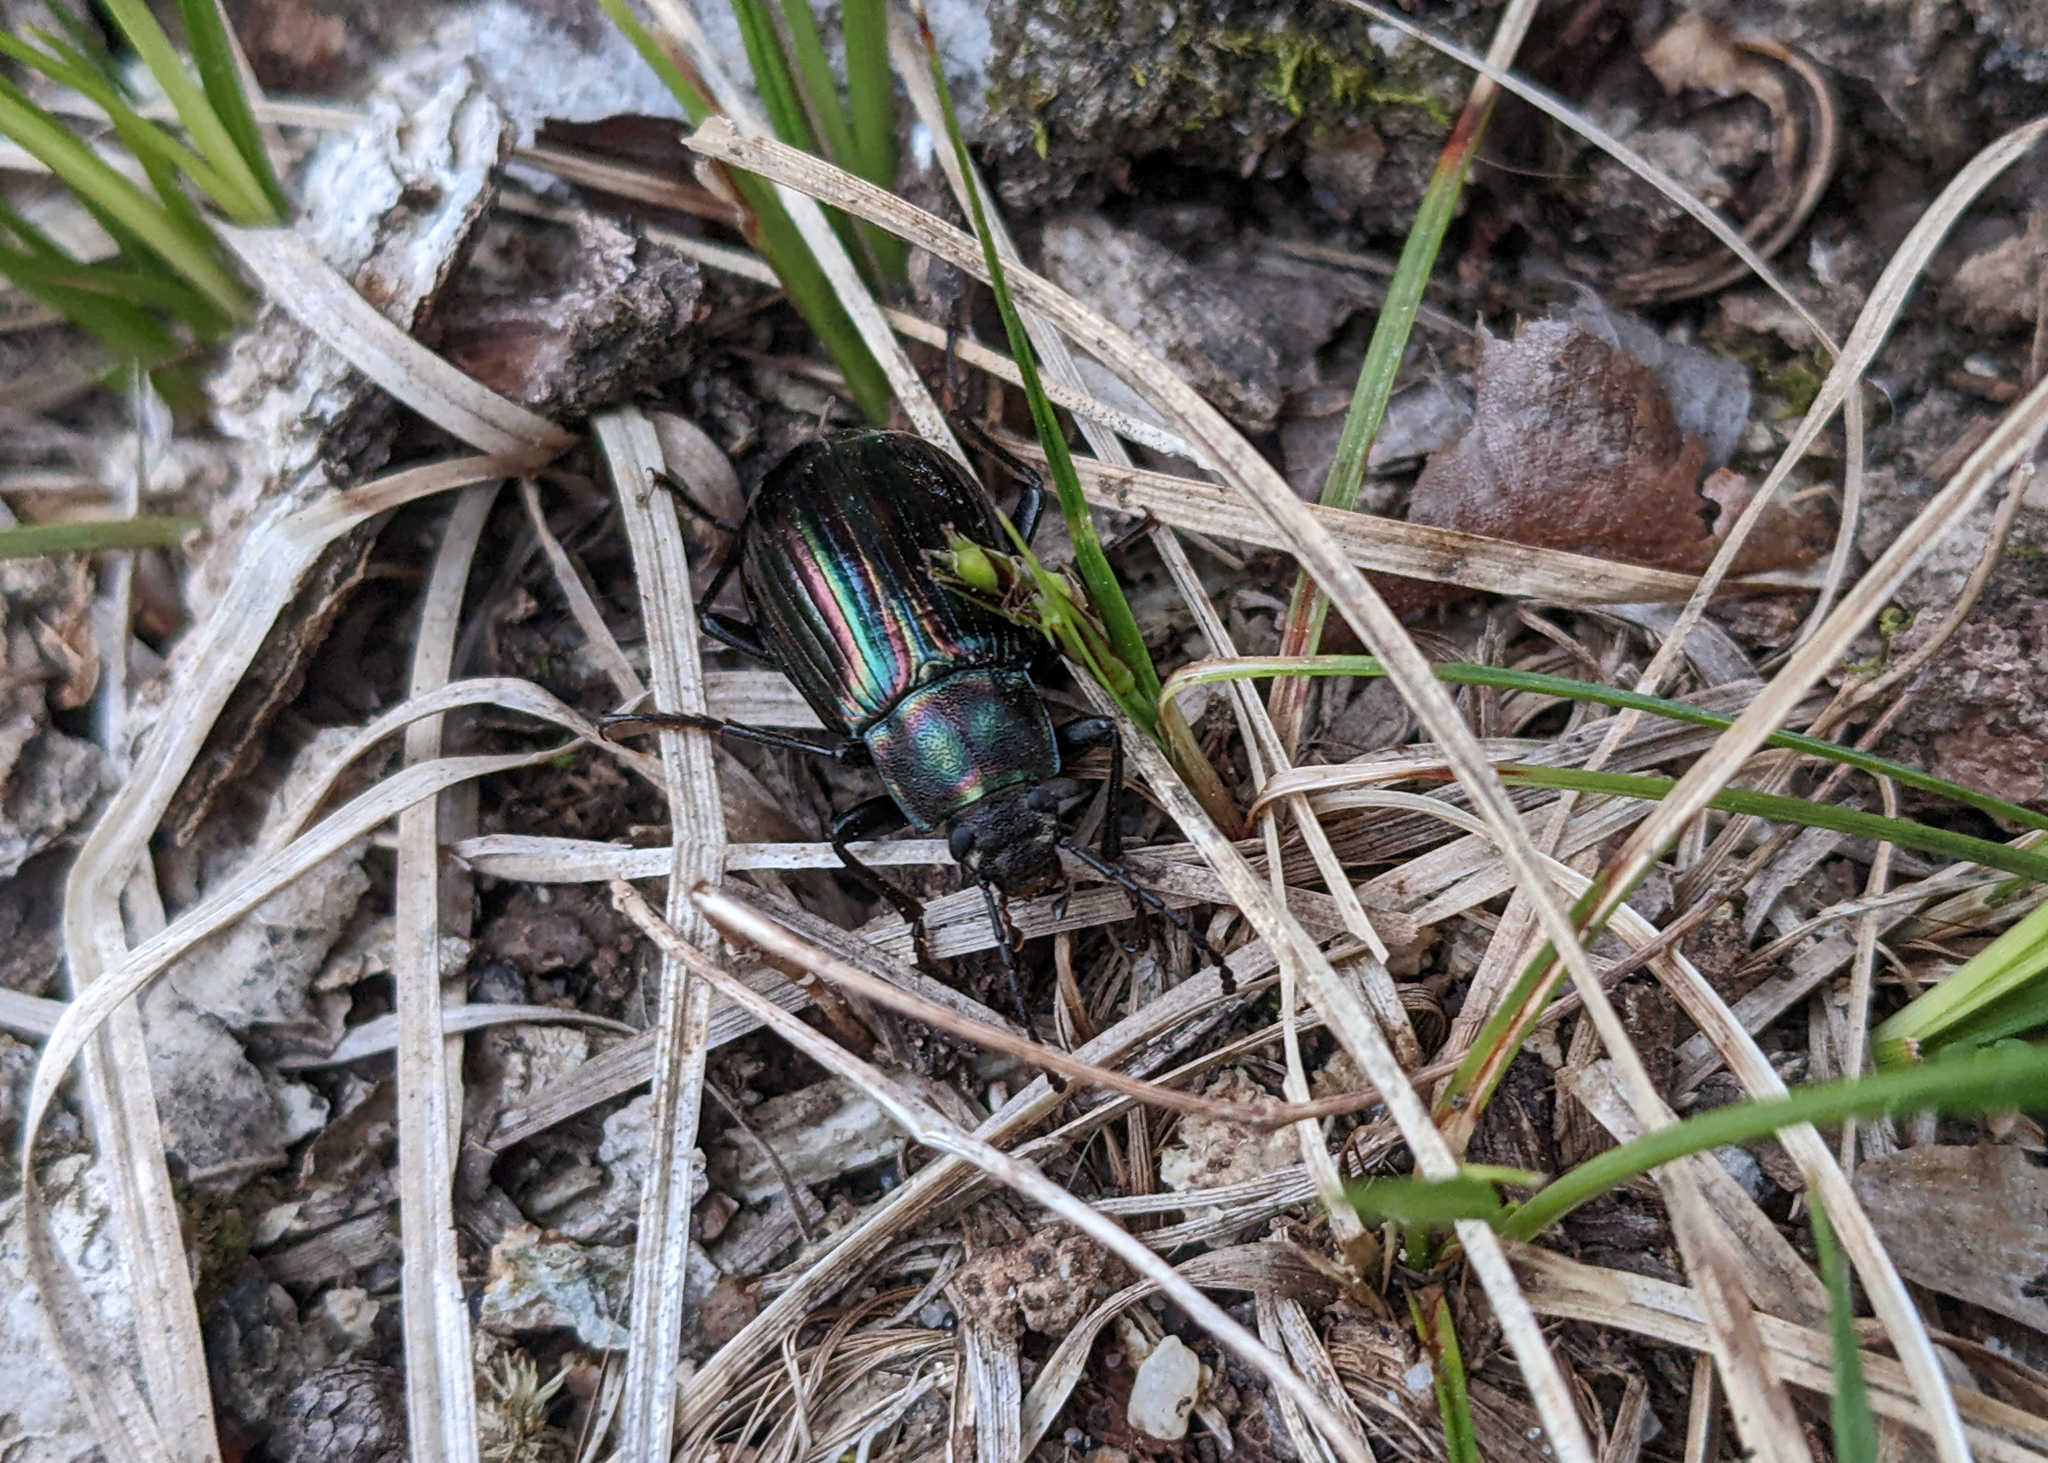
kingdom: Animalia
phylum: Arthropoda
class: Insecta
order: Coleoptera
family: Tenebrionidae
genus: Tarpela
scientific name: Tarpela micans
